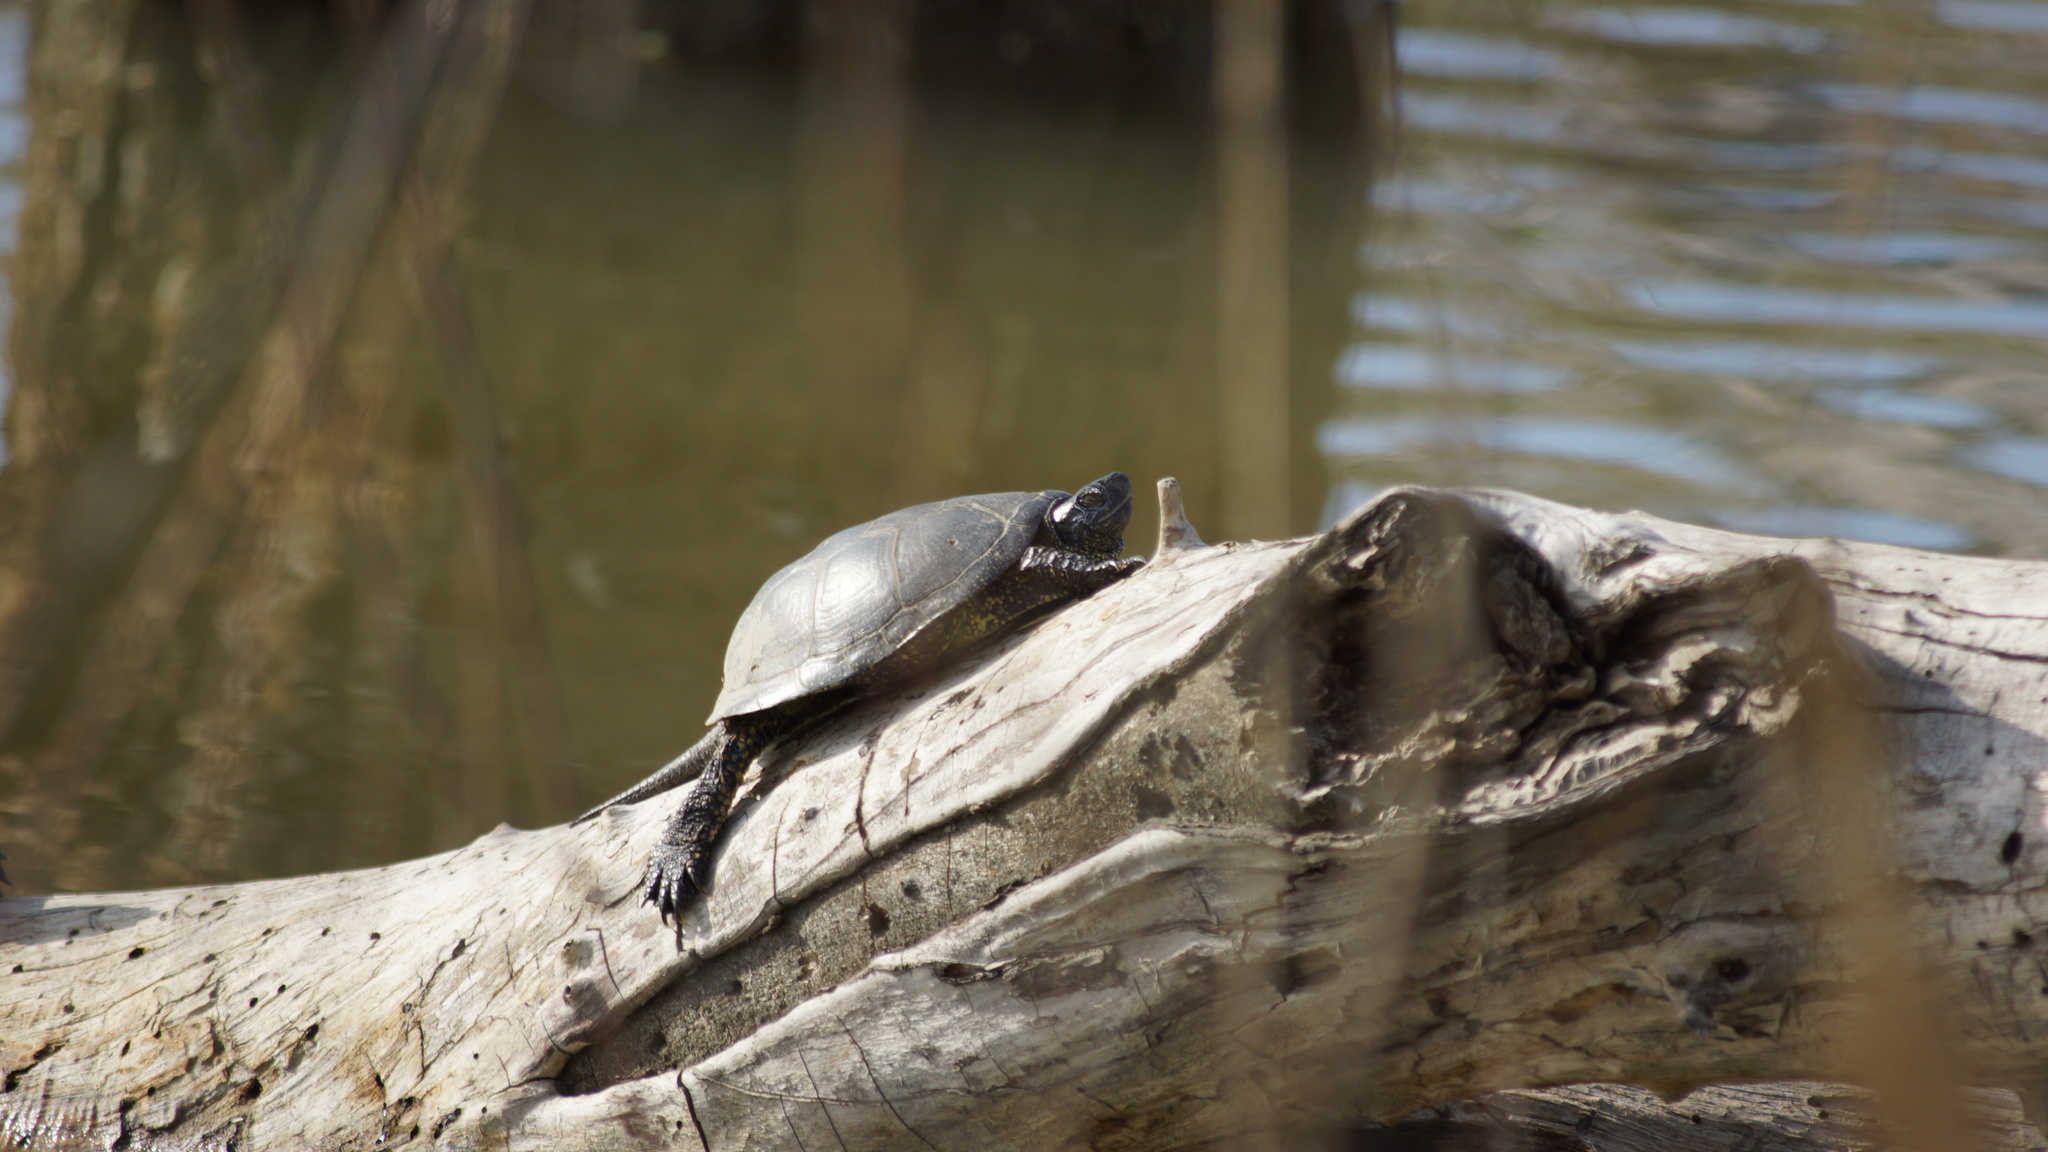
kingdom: Animalia
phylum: Chordata
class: Testudines
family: Emydidae
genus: Emys
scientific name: Emys orbicularis
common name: European pond turtle
